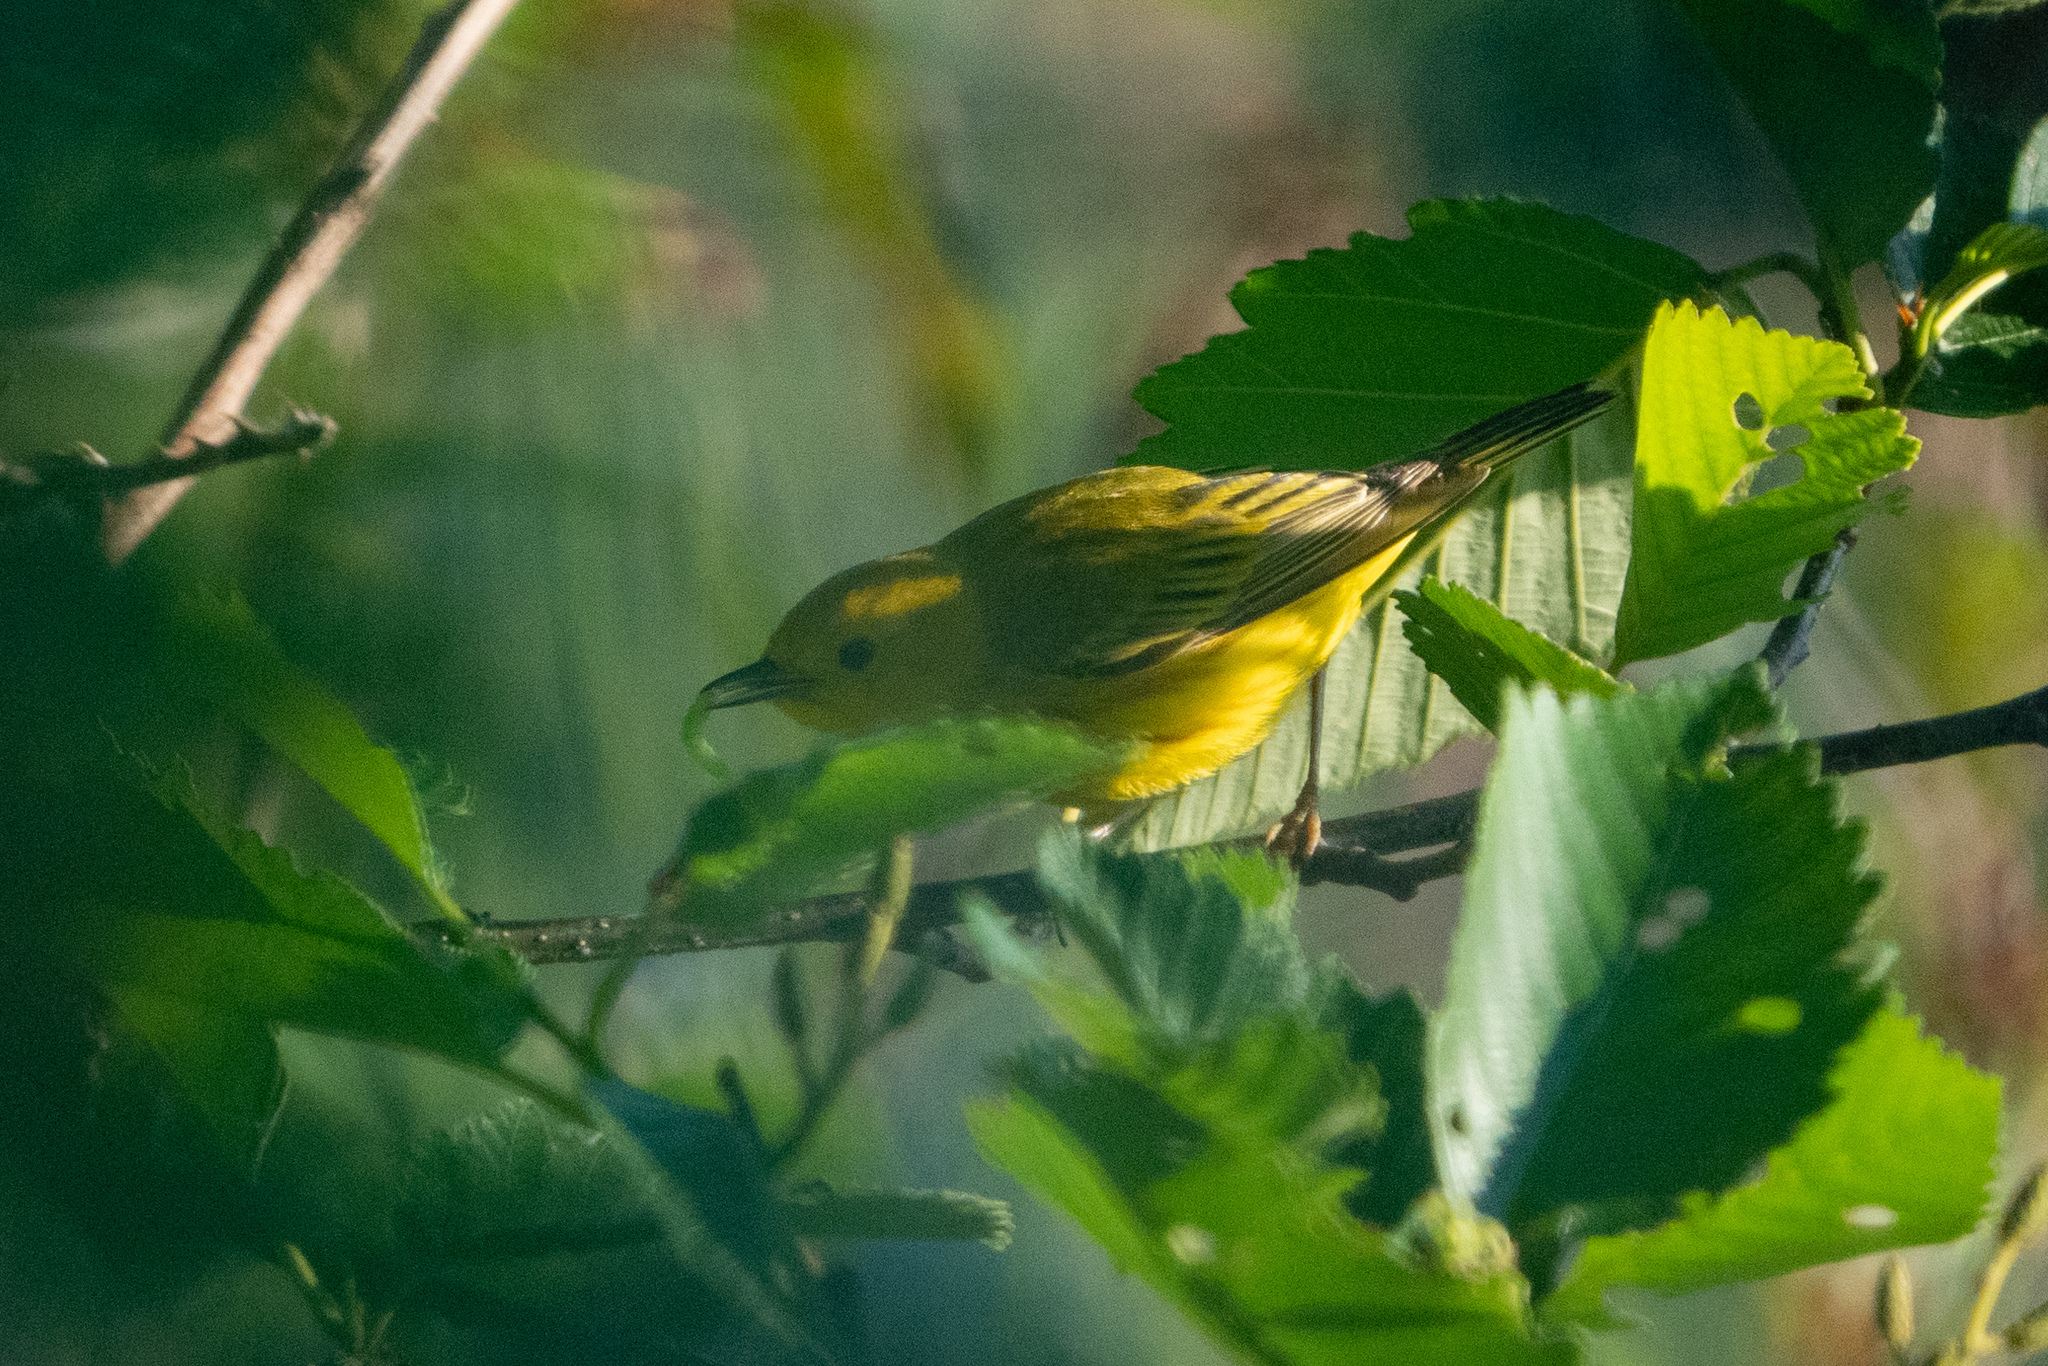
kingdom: Animalia
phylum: Chordata
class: Aves
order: Passeriformes
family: Parulidae
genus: Setophaga
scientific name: Setophaga petechia
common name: Yellow warbler
